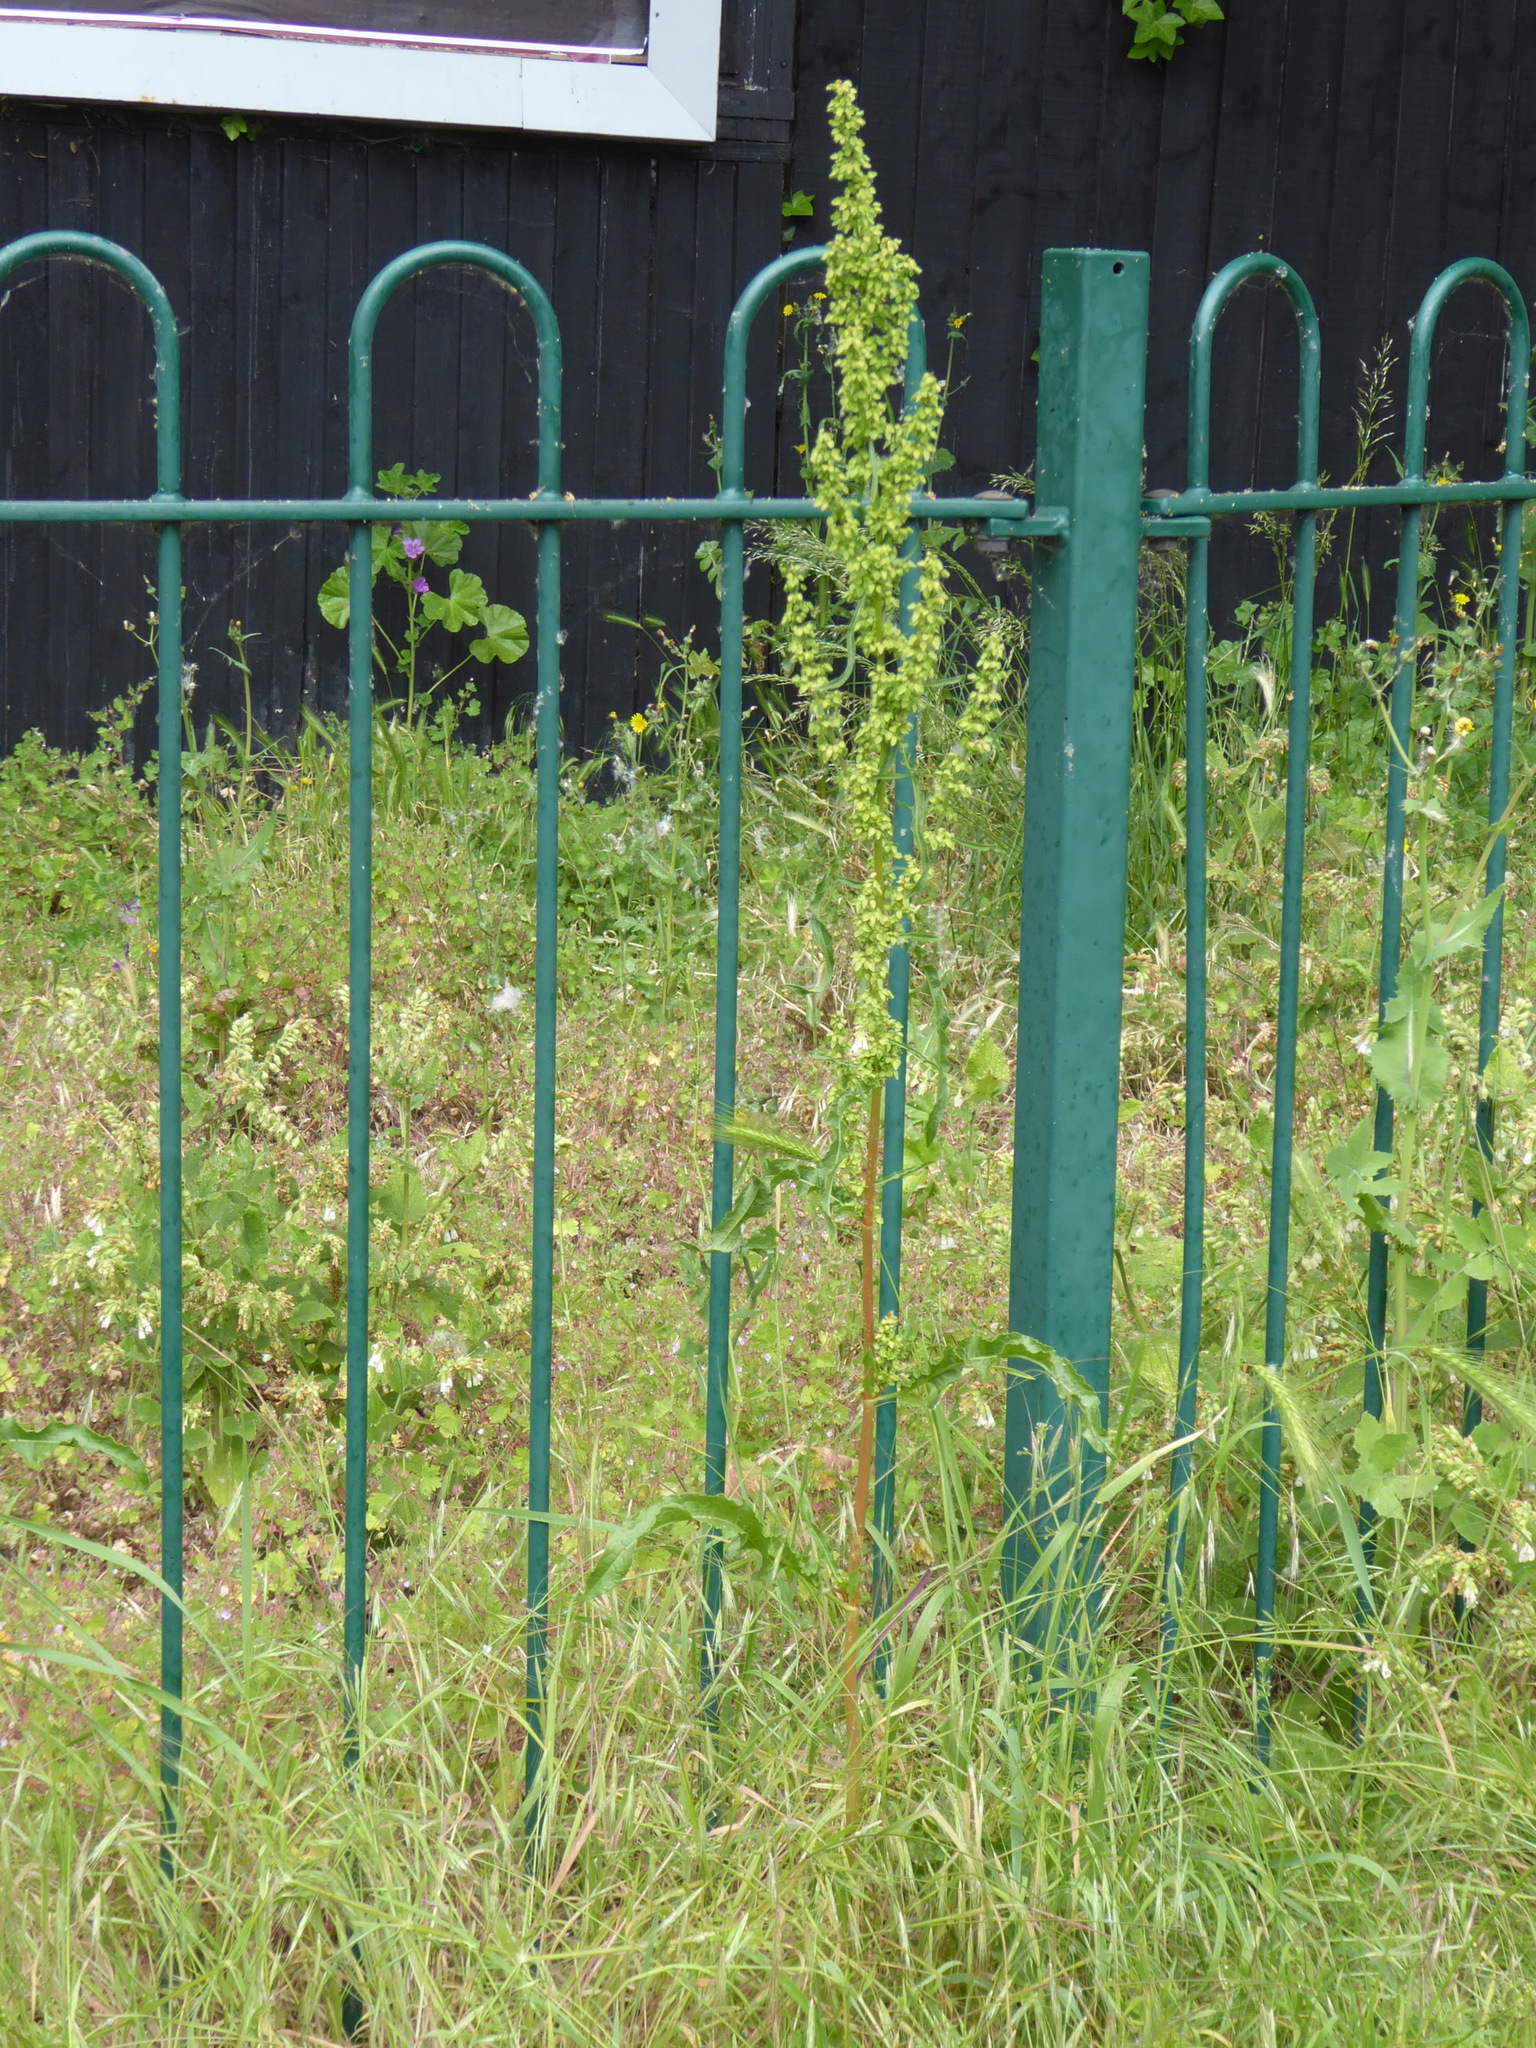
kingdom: Plantae
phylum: Tracheophyta
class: Magnoliopsida
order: Caryophyllales
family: Polygonaceae
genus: Rumex
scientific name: Rumex crispus
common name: Curled dock
